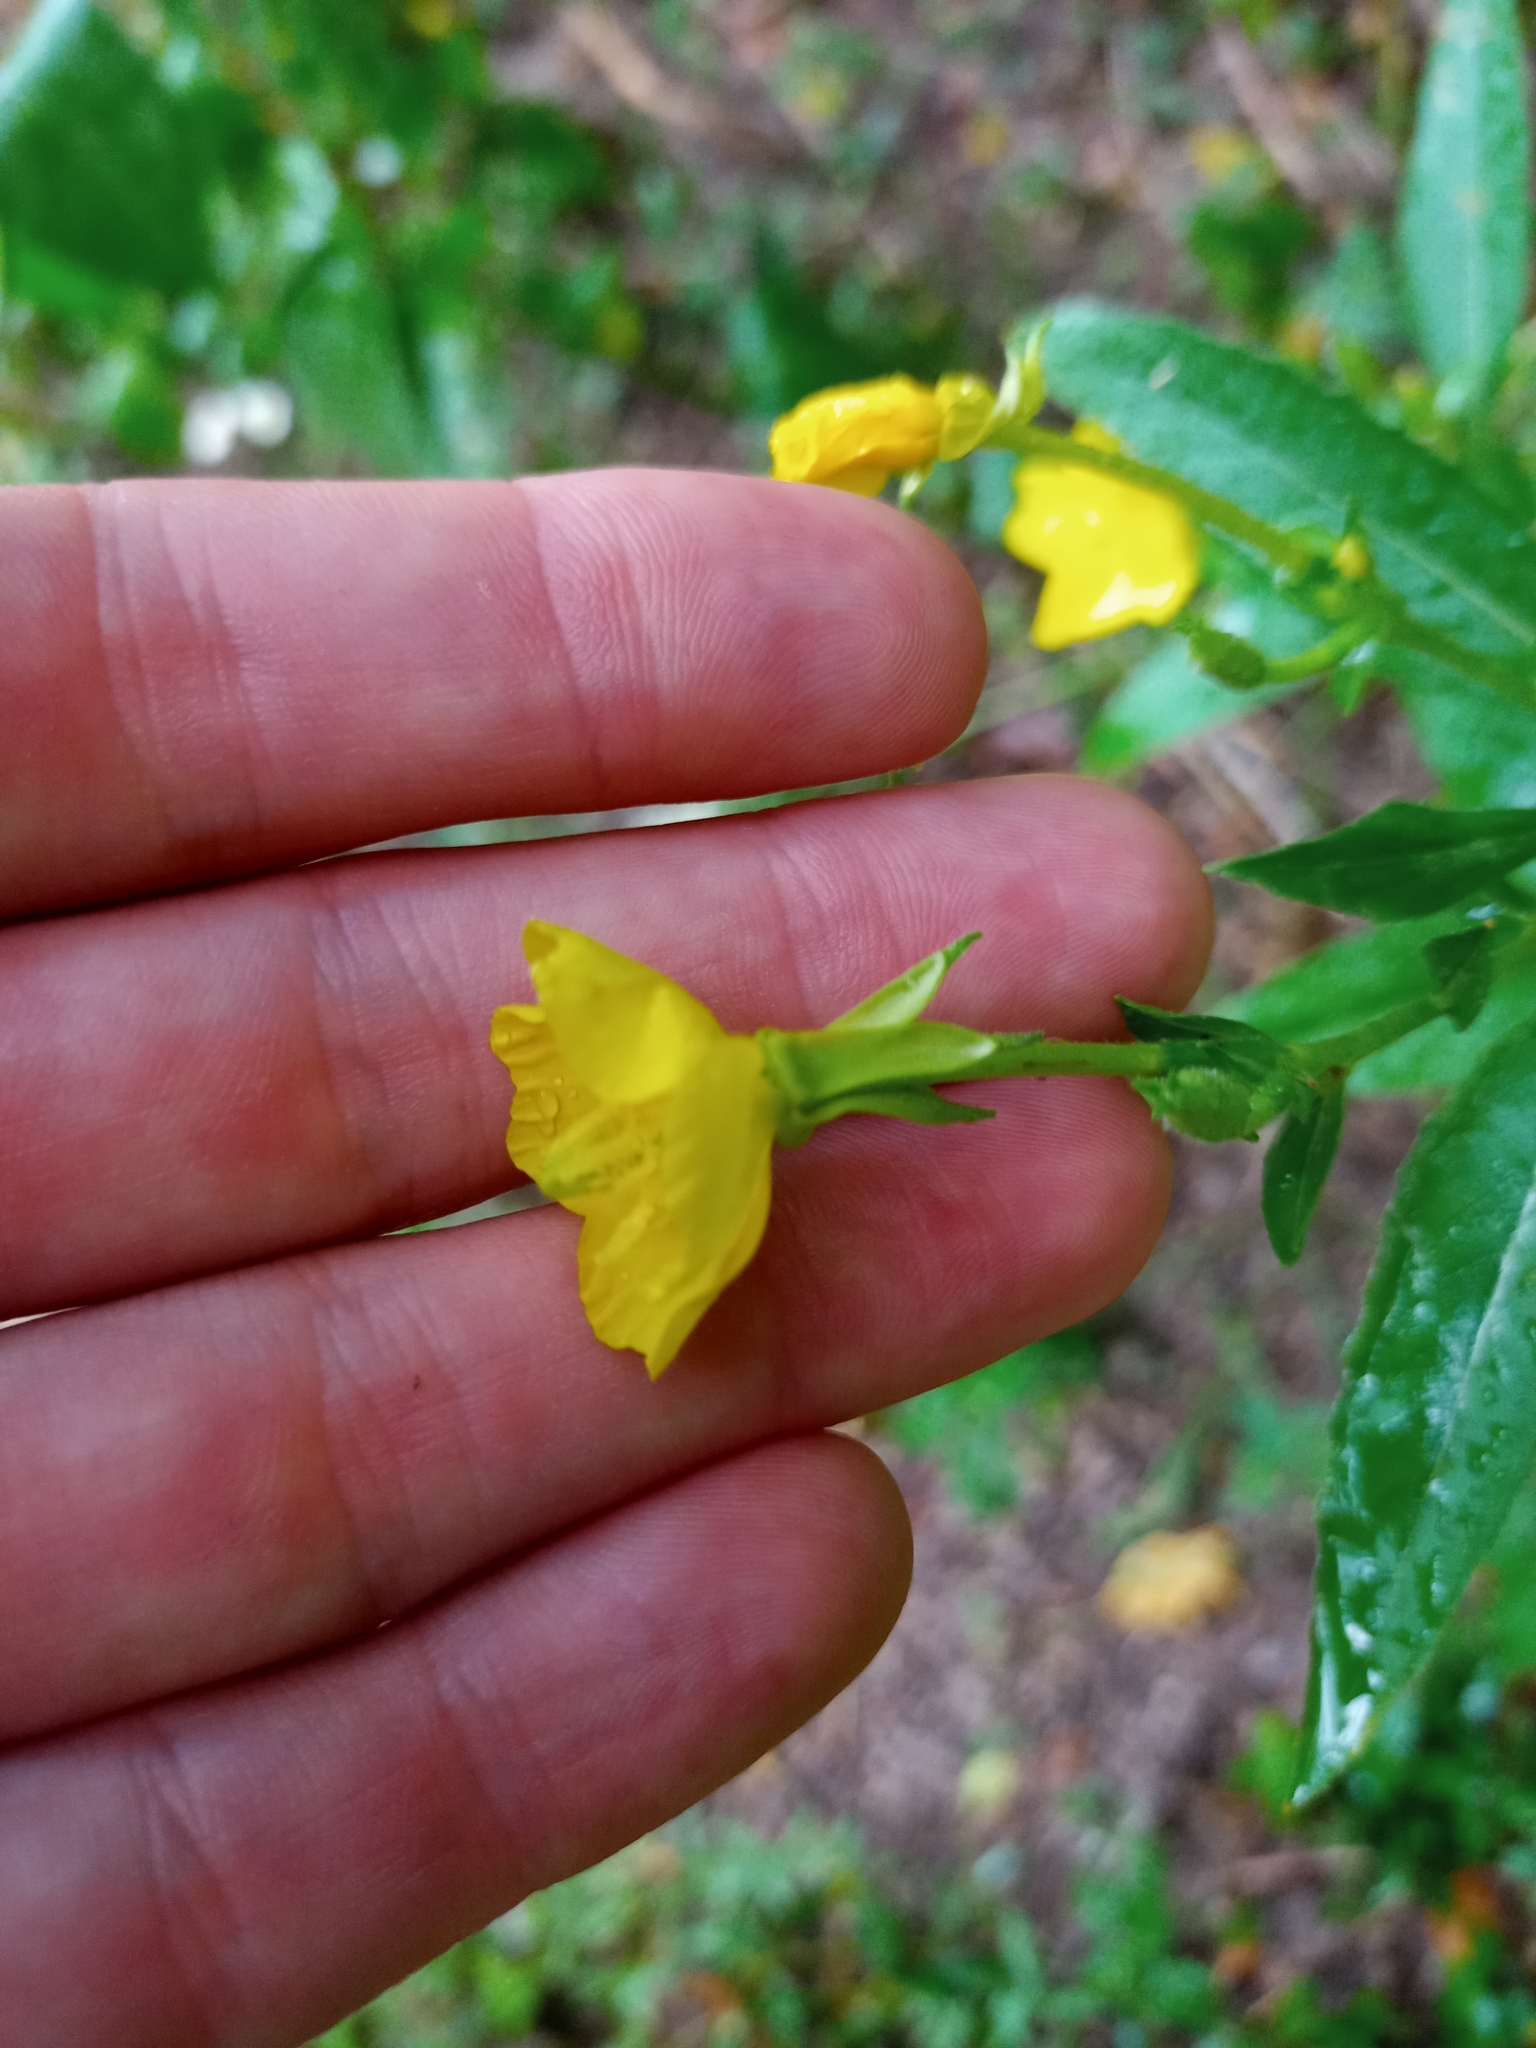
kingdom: Plantae
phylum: Tracheophyta
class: Magnoliopsida
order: Myrtales
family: Onagraceae
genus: Oenothera
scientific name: Oenothera parviflora
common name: Least evening-primrose
